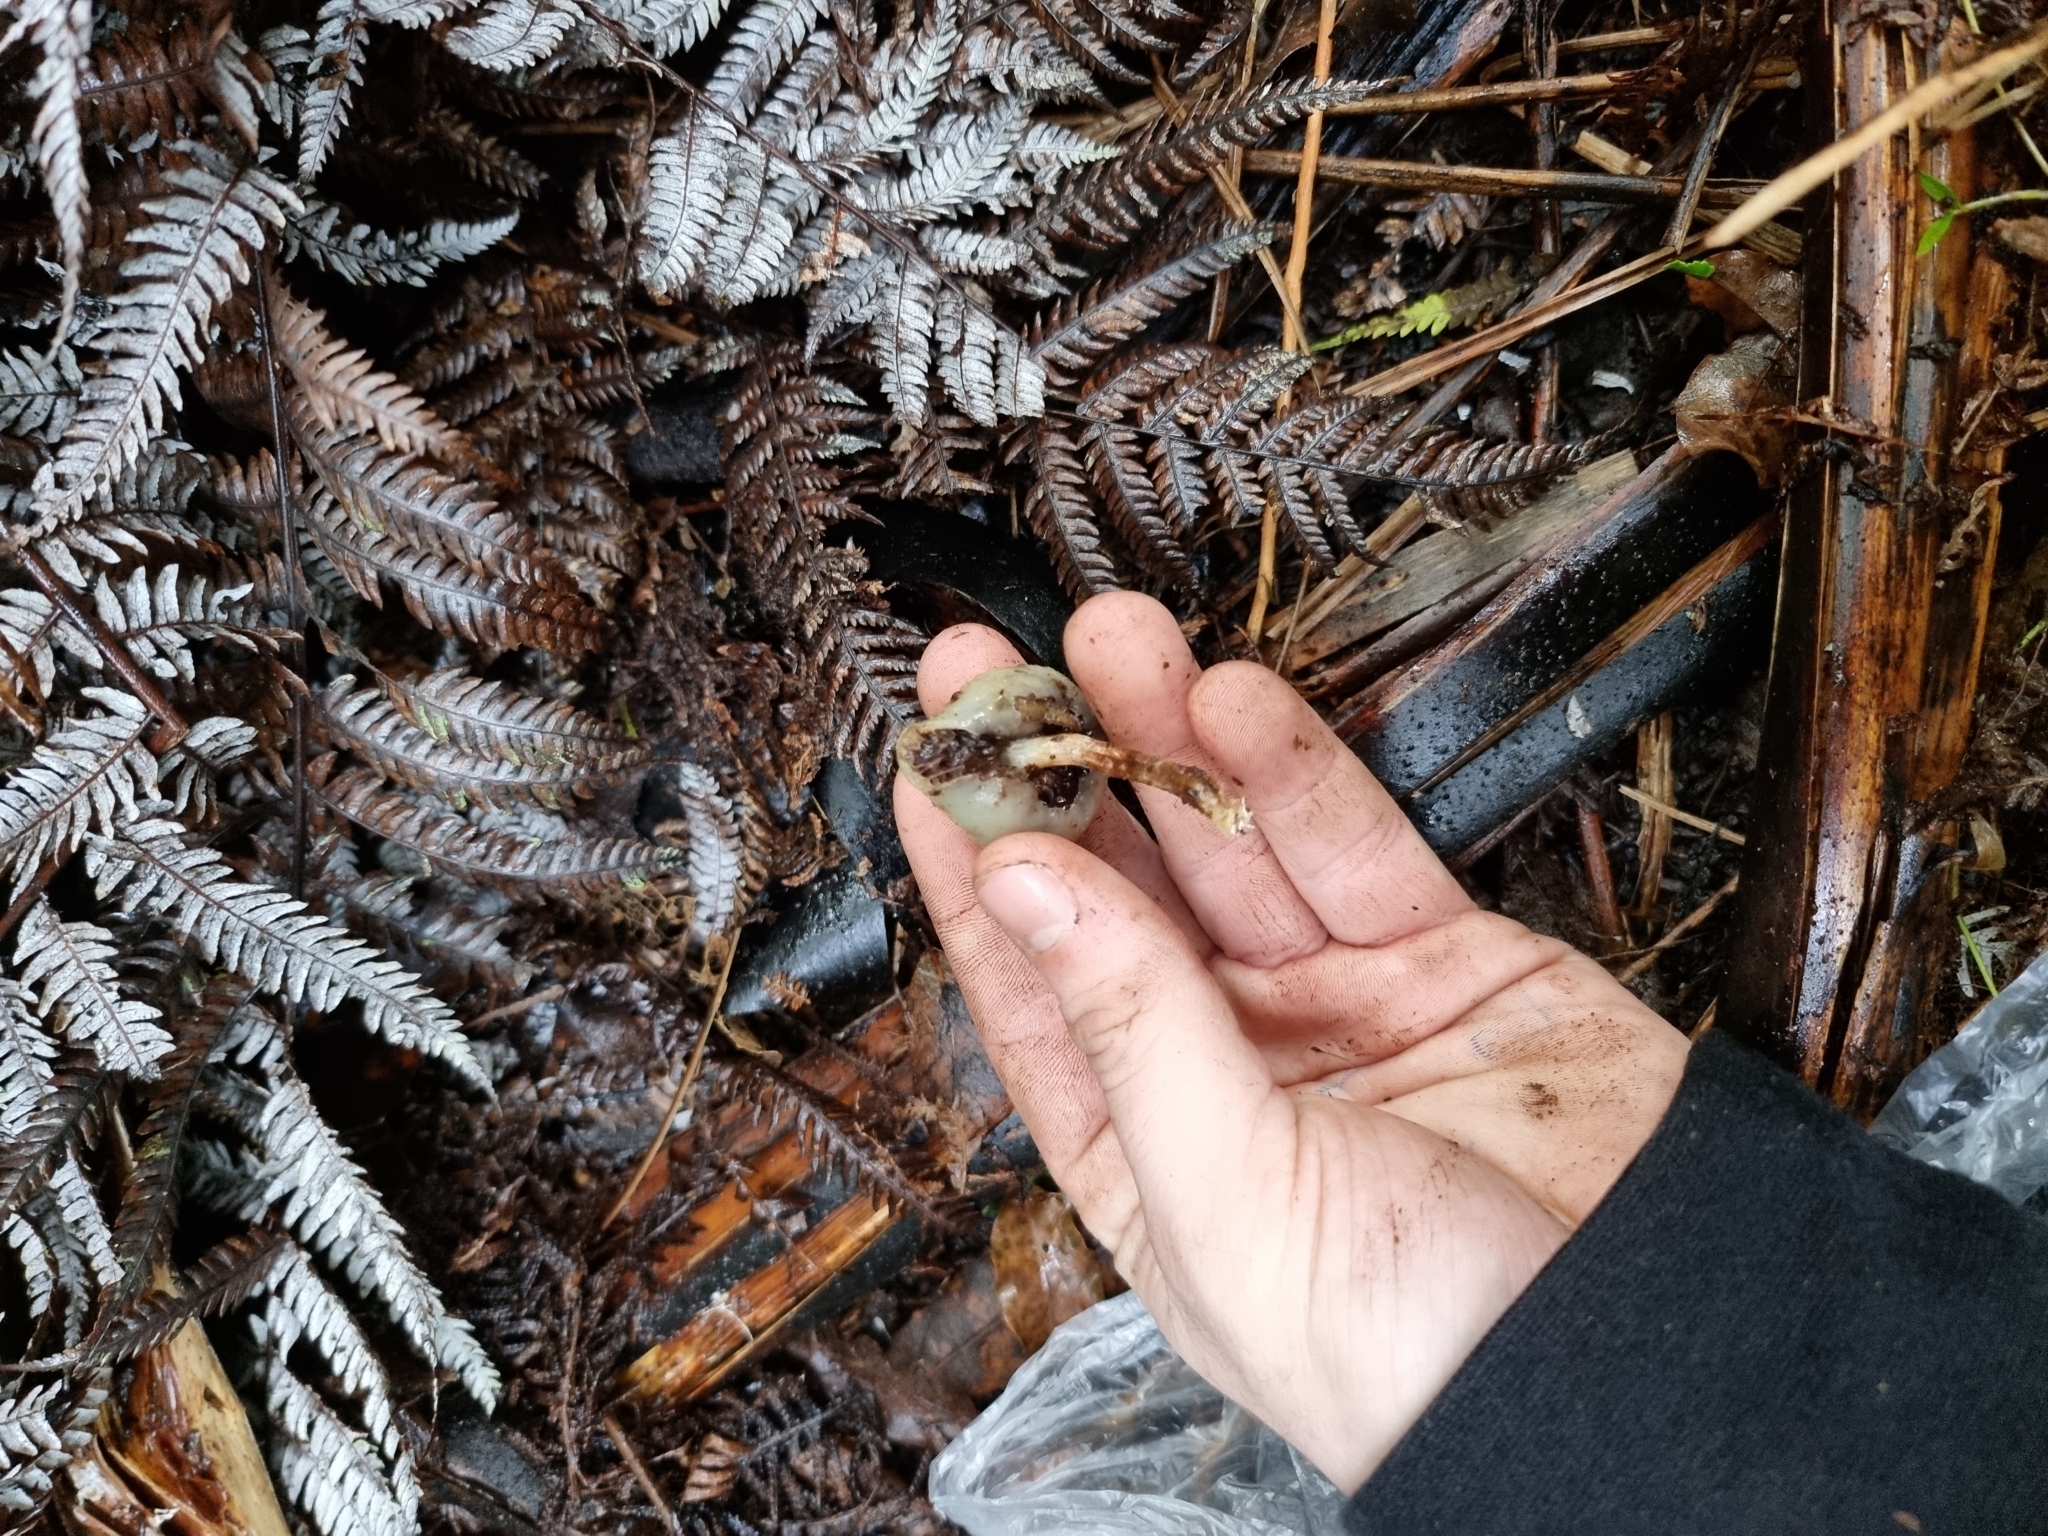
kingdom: Fungi
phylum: Basidiomycota
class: Agaricomycetes
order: Agaricales
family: Hymenogastraceae
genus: Psilocybe
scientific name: Psilocybe weraroa
